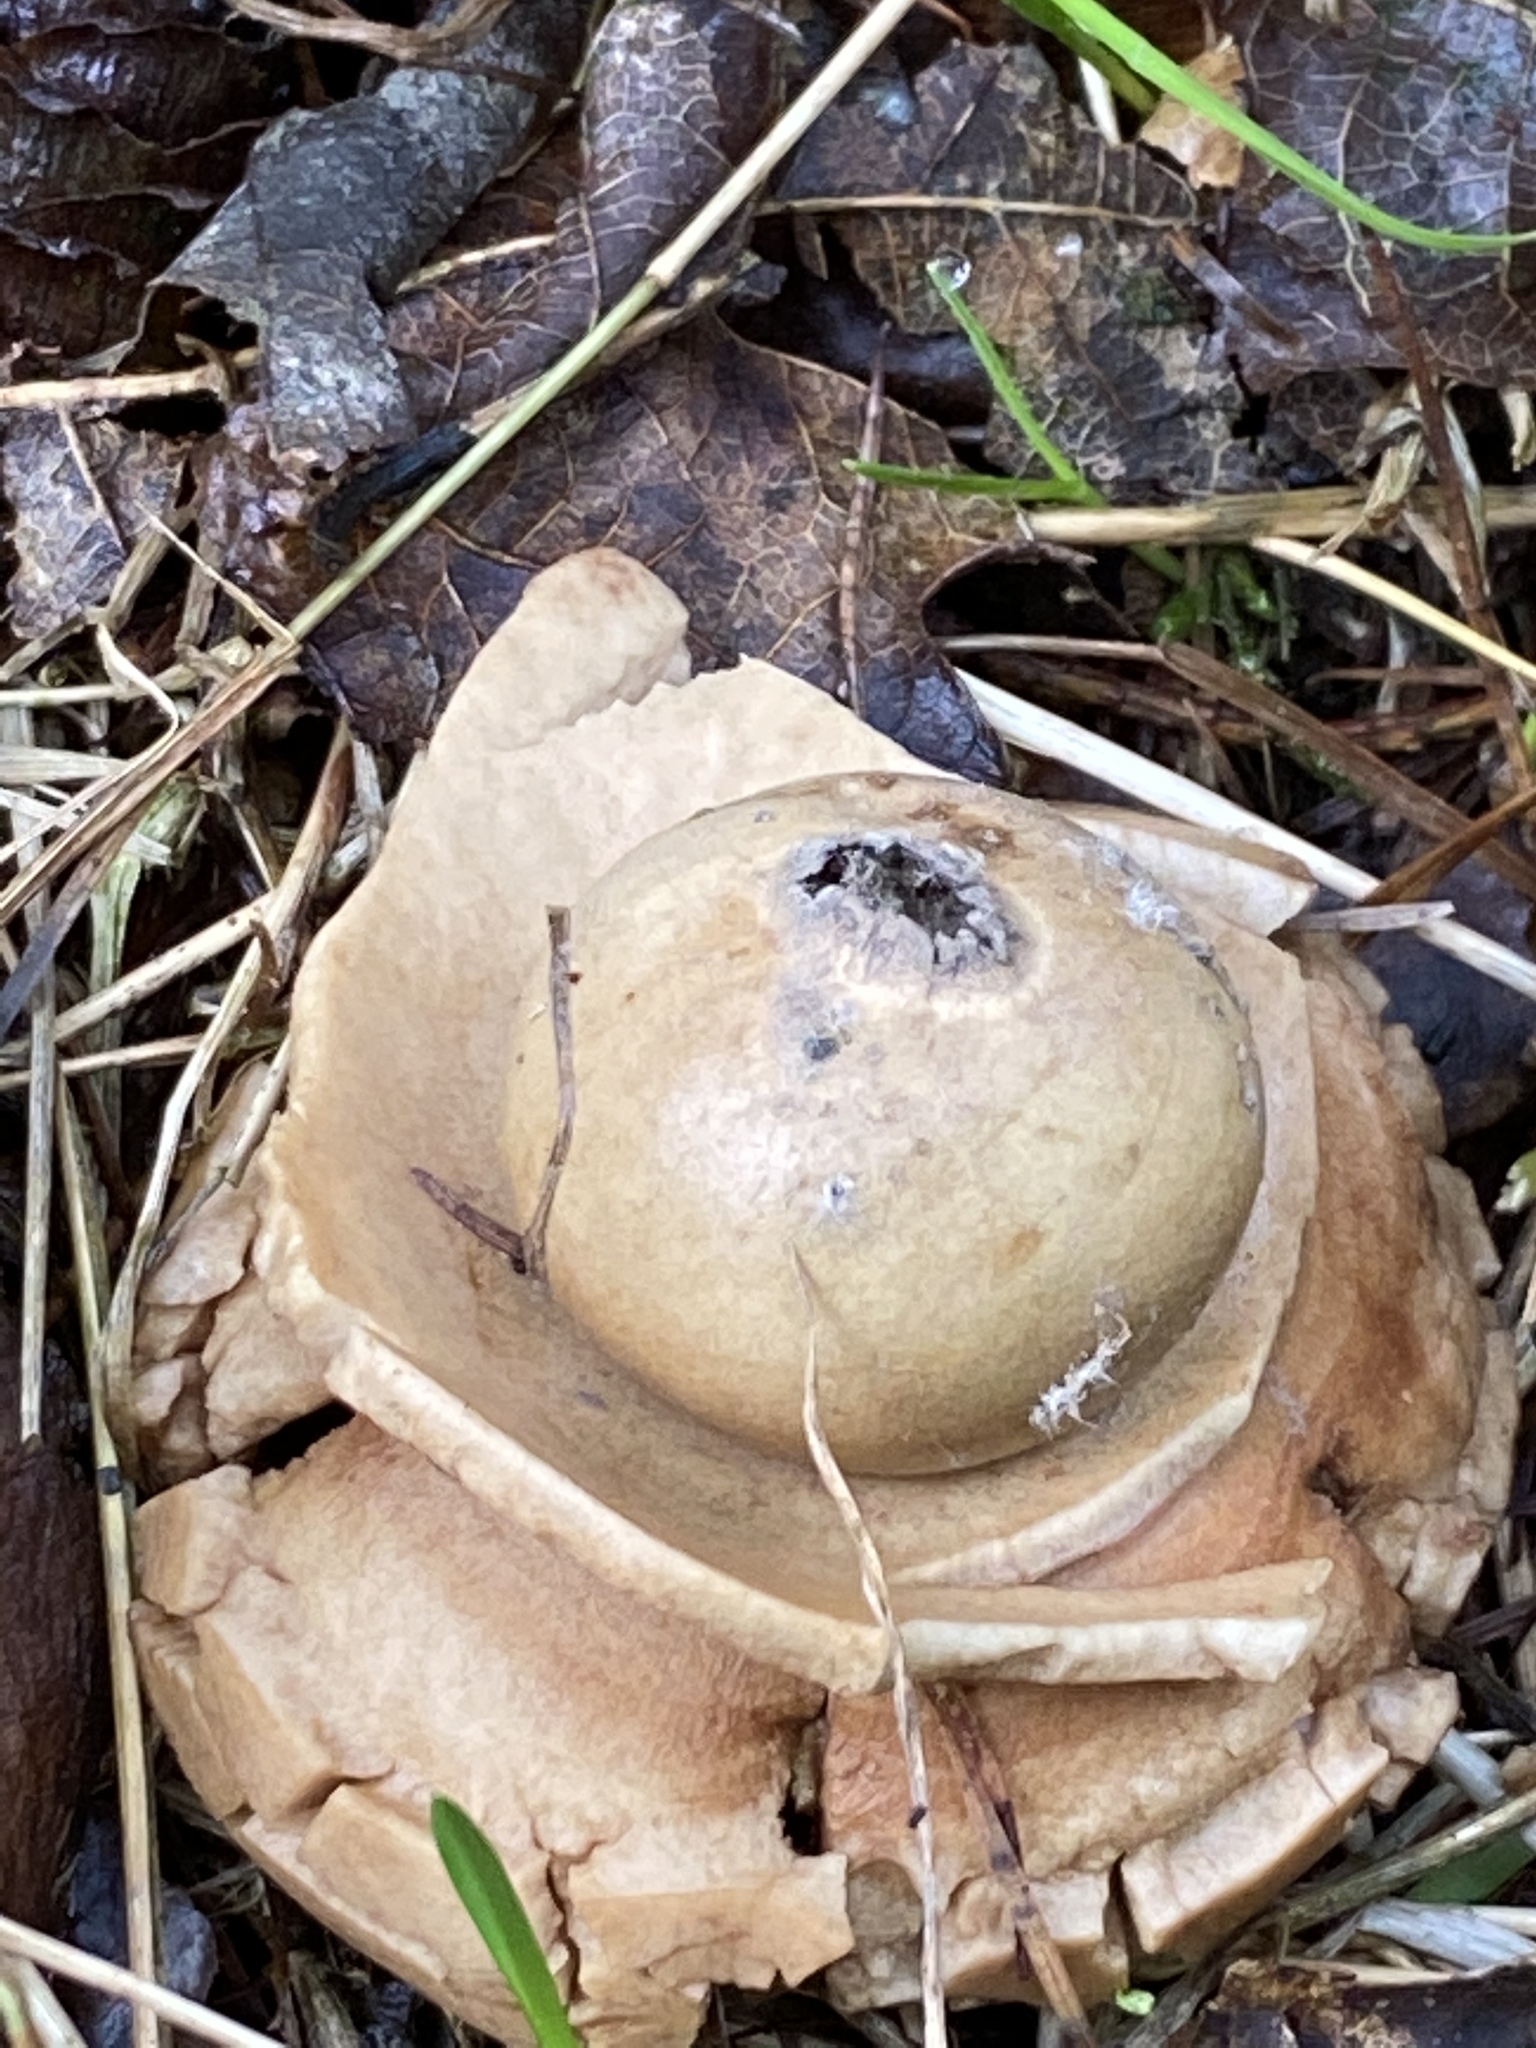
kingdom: Fungi
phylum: Basidiomycota
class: Agaricomycetes
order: Geastrales
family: Geastraceae
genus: Geastrum
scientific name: Geastrum triplex
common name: Collared earthstar
